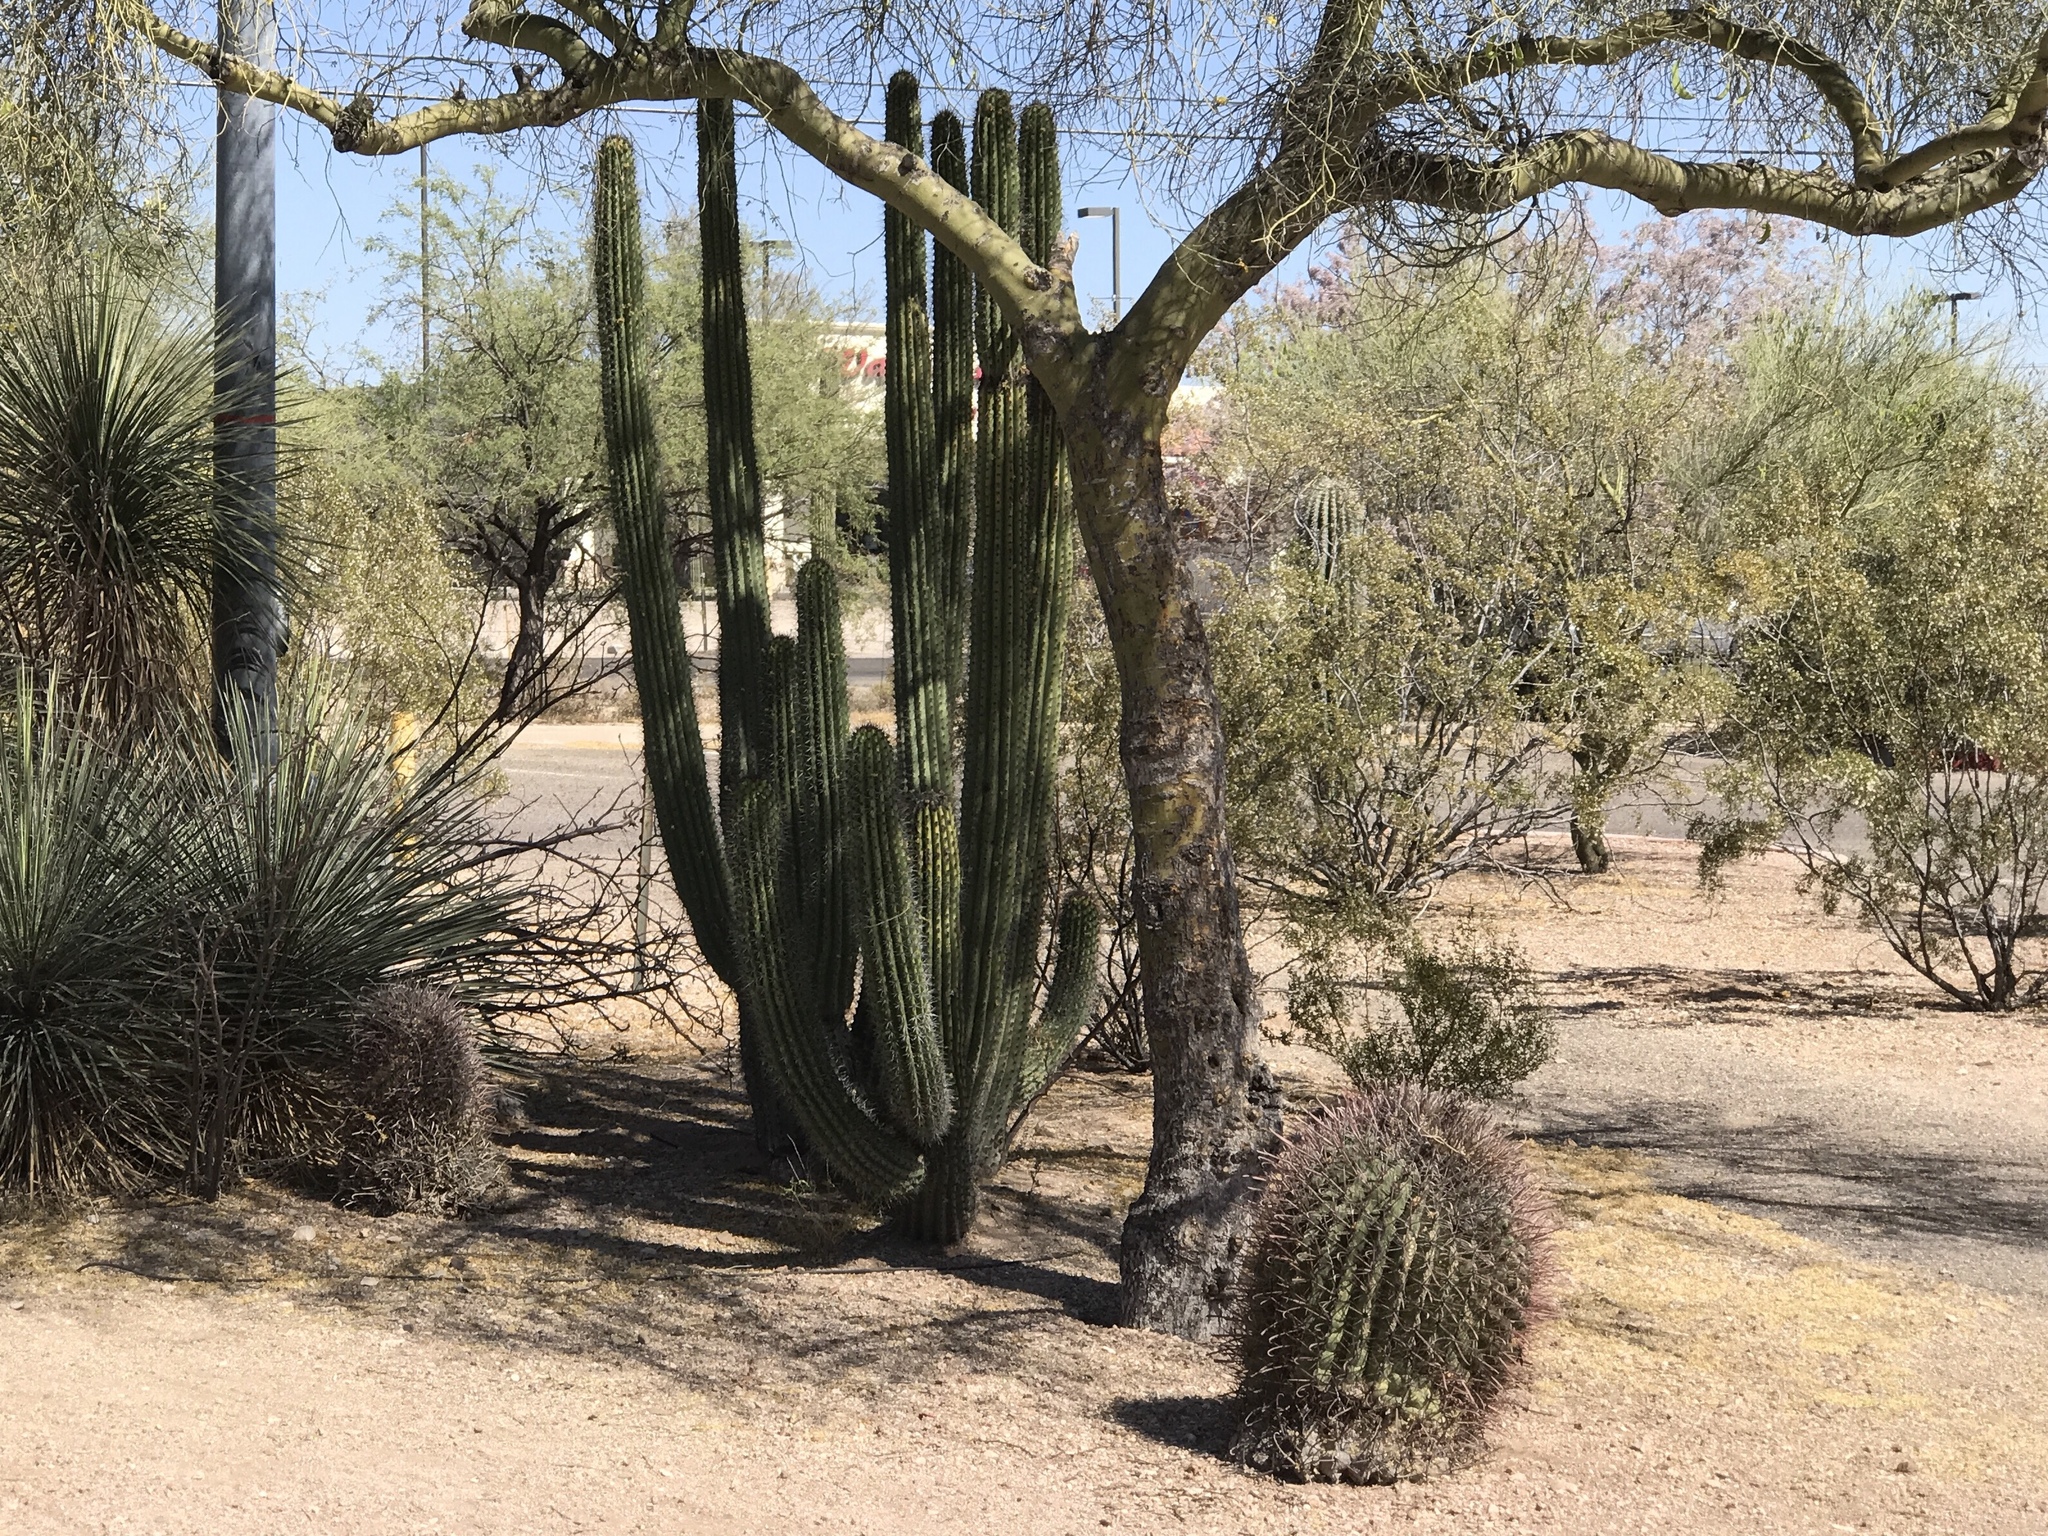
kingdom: Plantae
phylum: Tracheophyta
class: Magnoliopsida
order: Caryophyllales
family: Cactaceae
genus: Ferocactus
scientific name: Ferocactus wislizeni
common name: Candy barrel cactus
